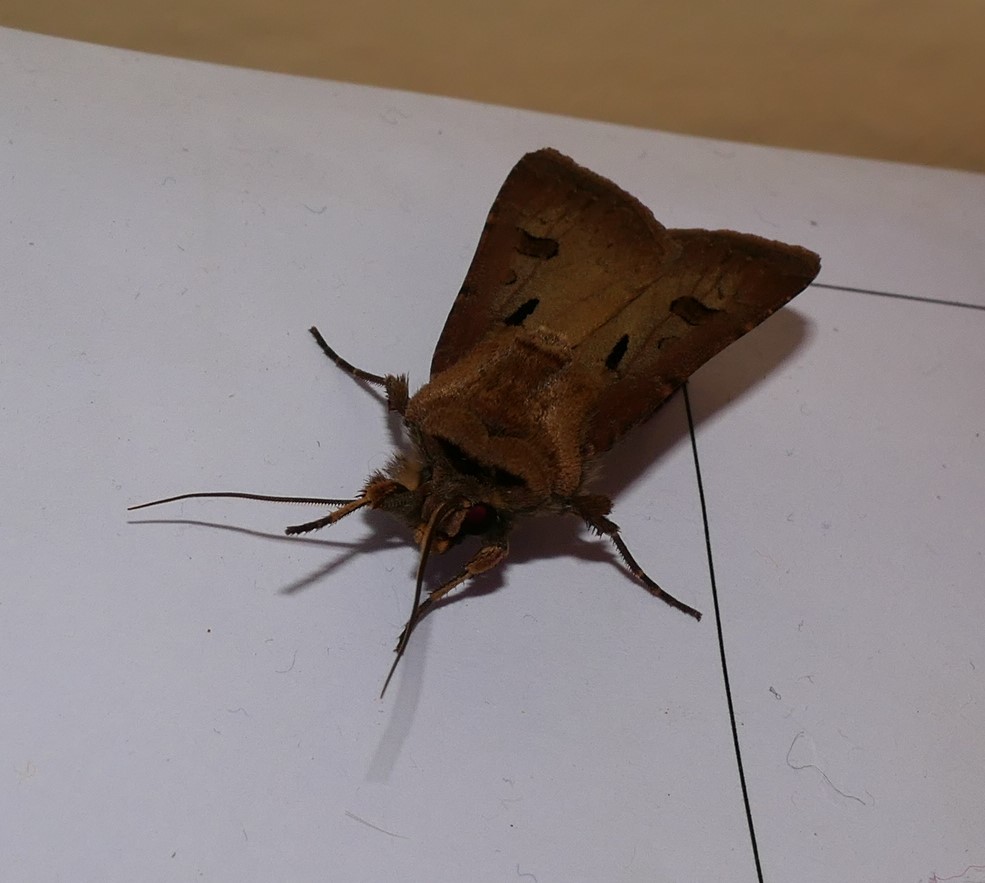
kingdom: Animalia
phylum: Arthropoda
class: Insecta
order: Lepidoptera
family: Noctuidae
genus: Agrotis
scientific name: Agrotis exclamationis
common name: Heart and dart
